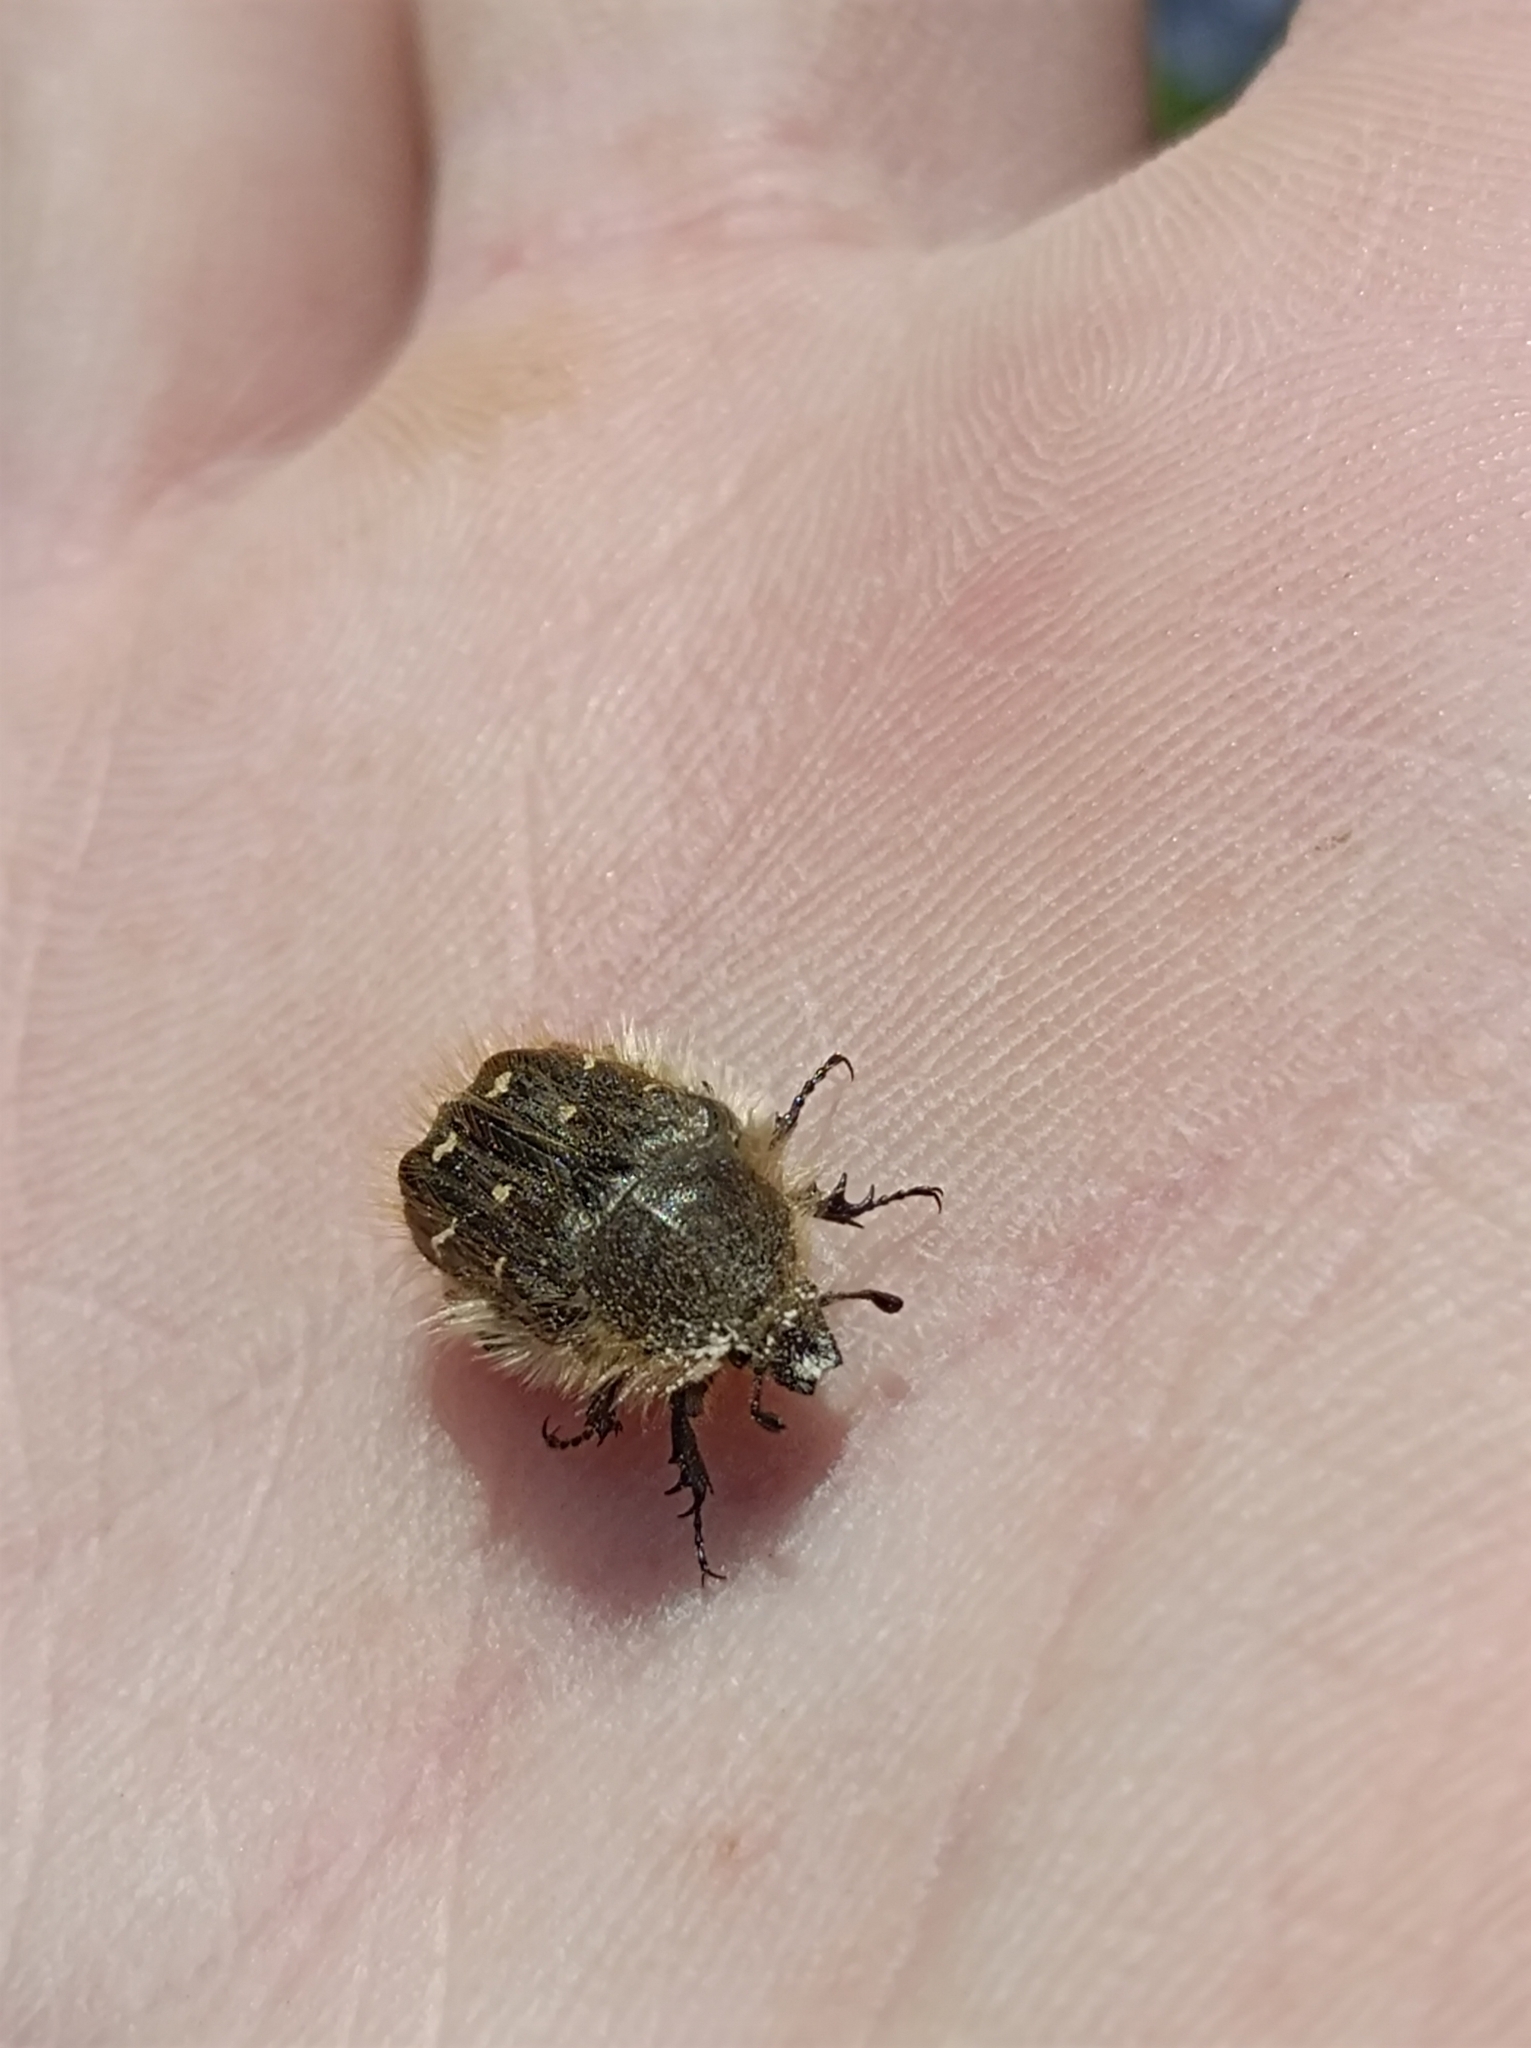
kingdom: Animalia
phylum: Arthropoda
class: Insecta
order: Coleoptera
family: Scarabaeidae
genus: Tropinota
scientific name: Tropinota hirta
